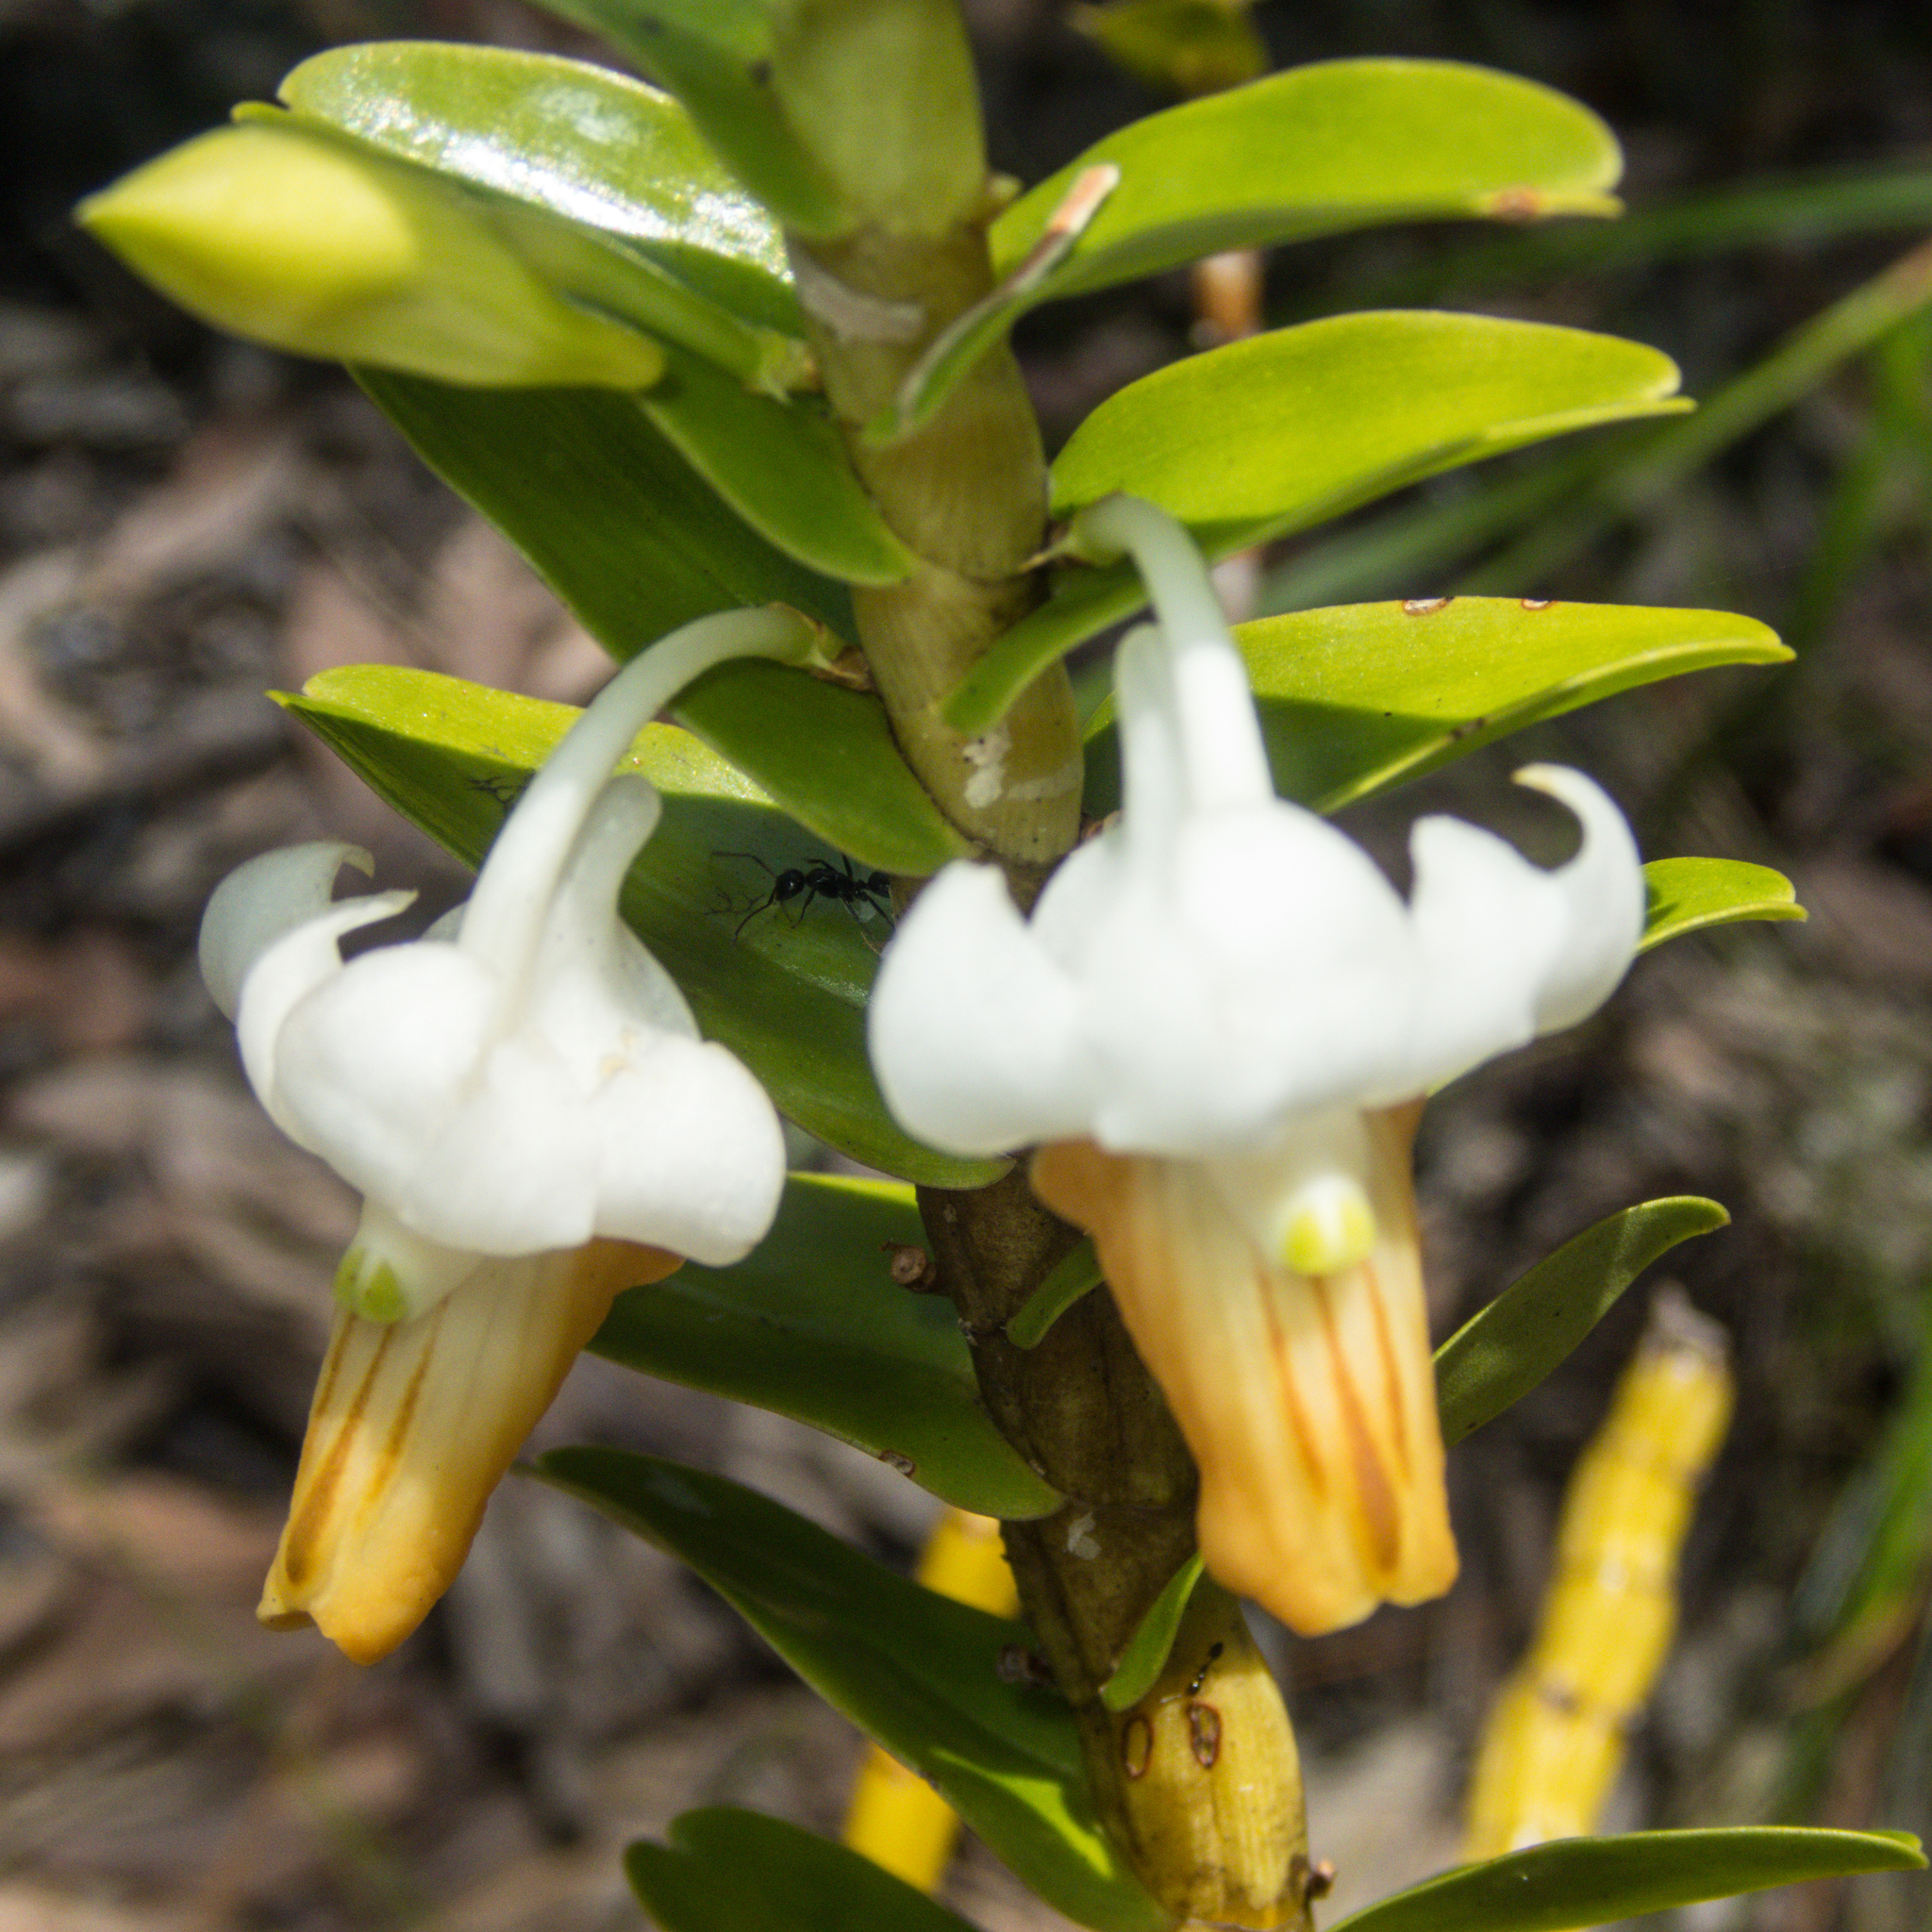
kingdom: Plantae
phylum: Tracheophyta
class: Liliopsida
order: Asparagales
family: Orchidaceae
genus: Dendrobium
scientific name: Dendrobium ellipsophyllum
